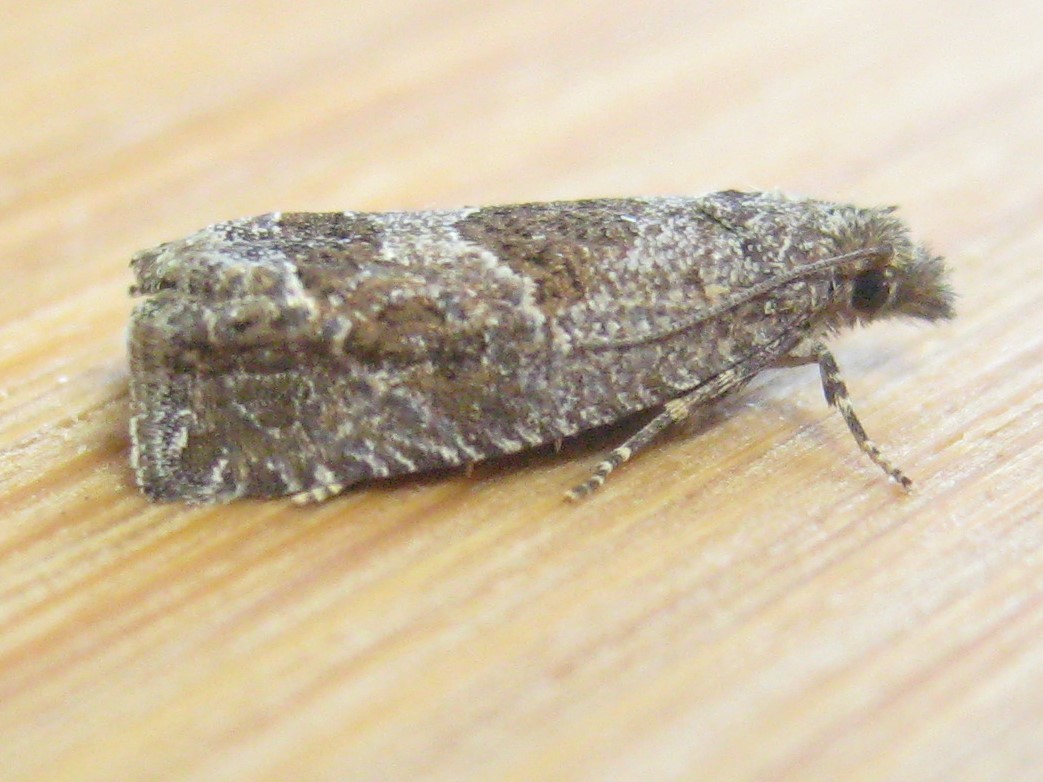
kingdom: Animalia
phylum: Arthropoda
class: Insecta
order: Lepidoptera
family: Tortricidae
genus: Pelochrista
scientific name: Pelochrista milleri
